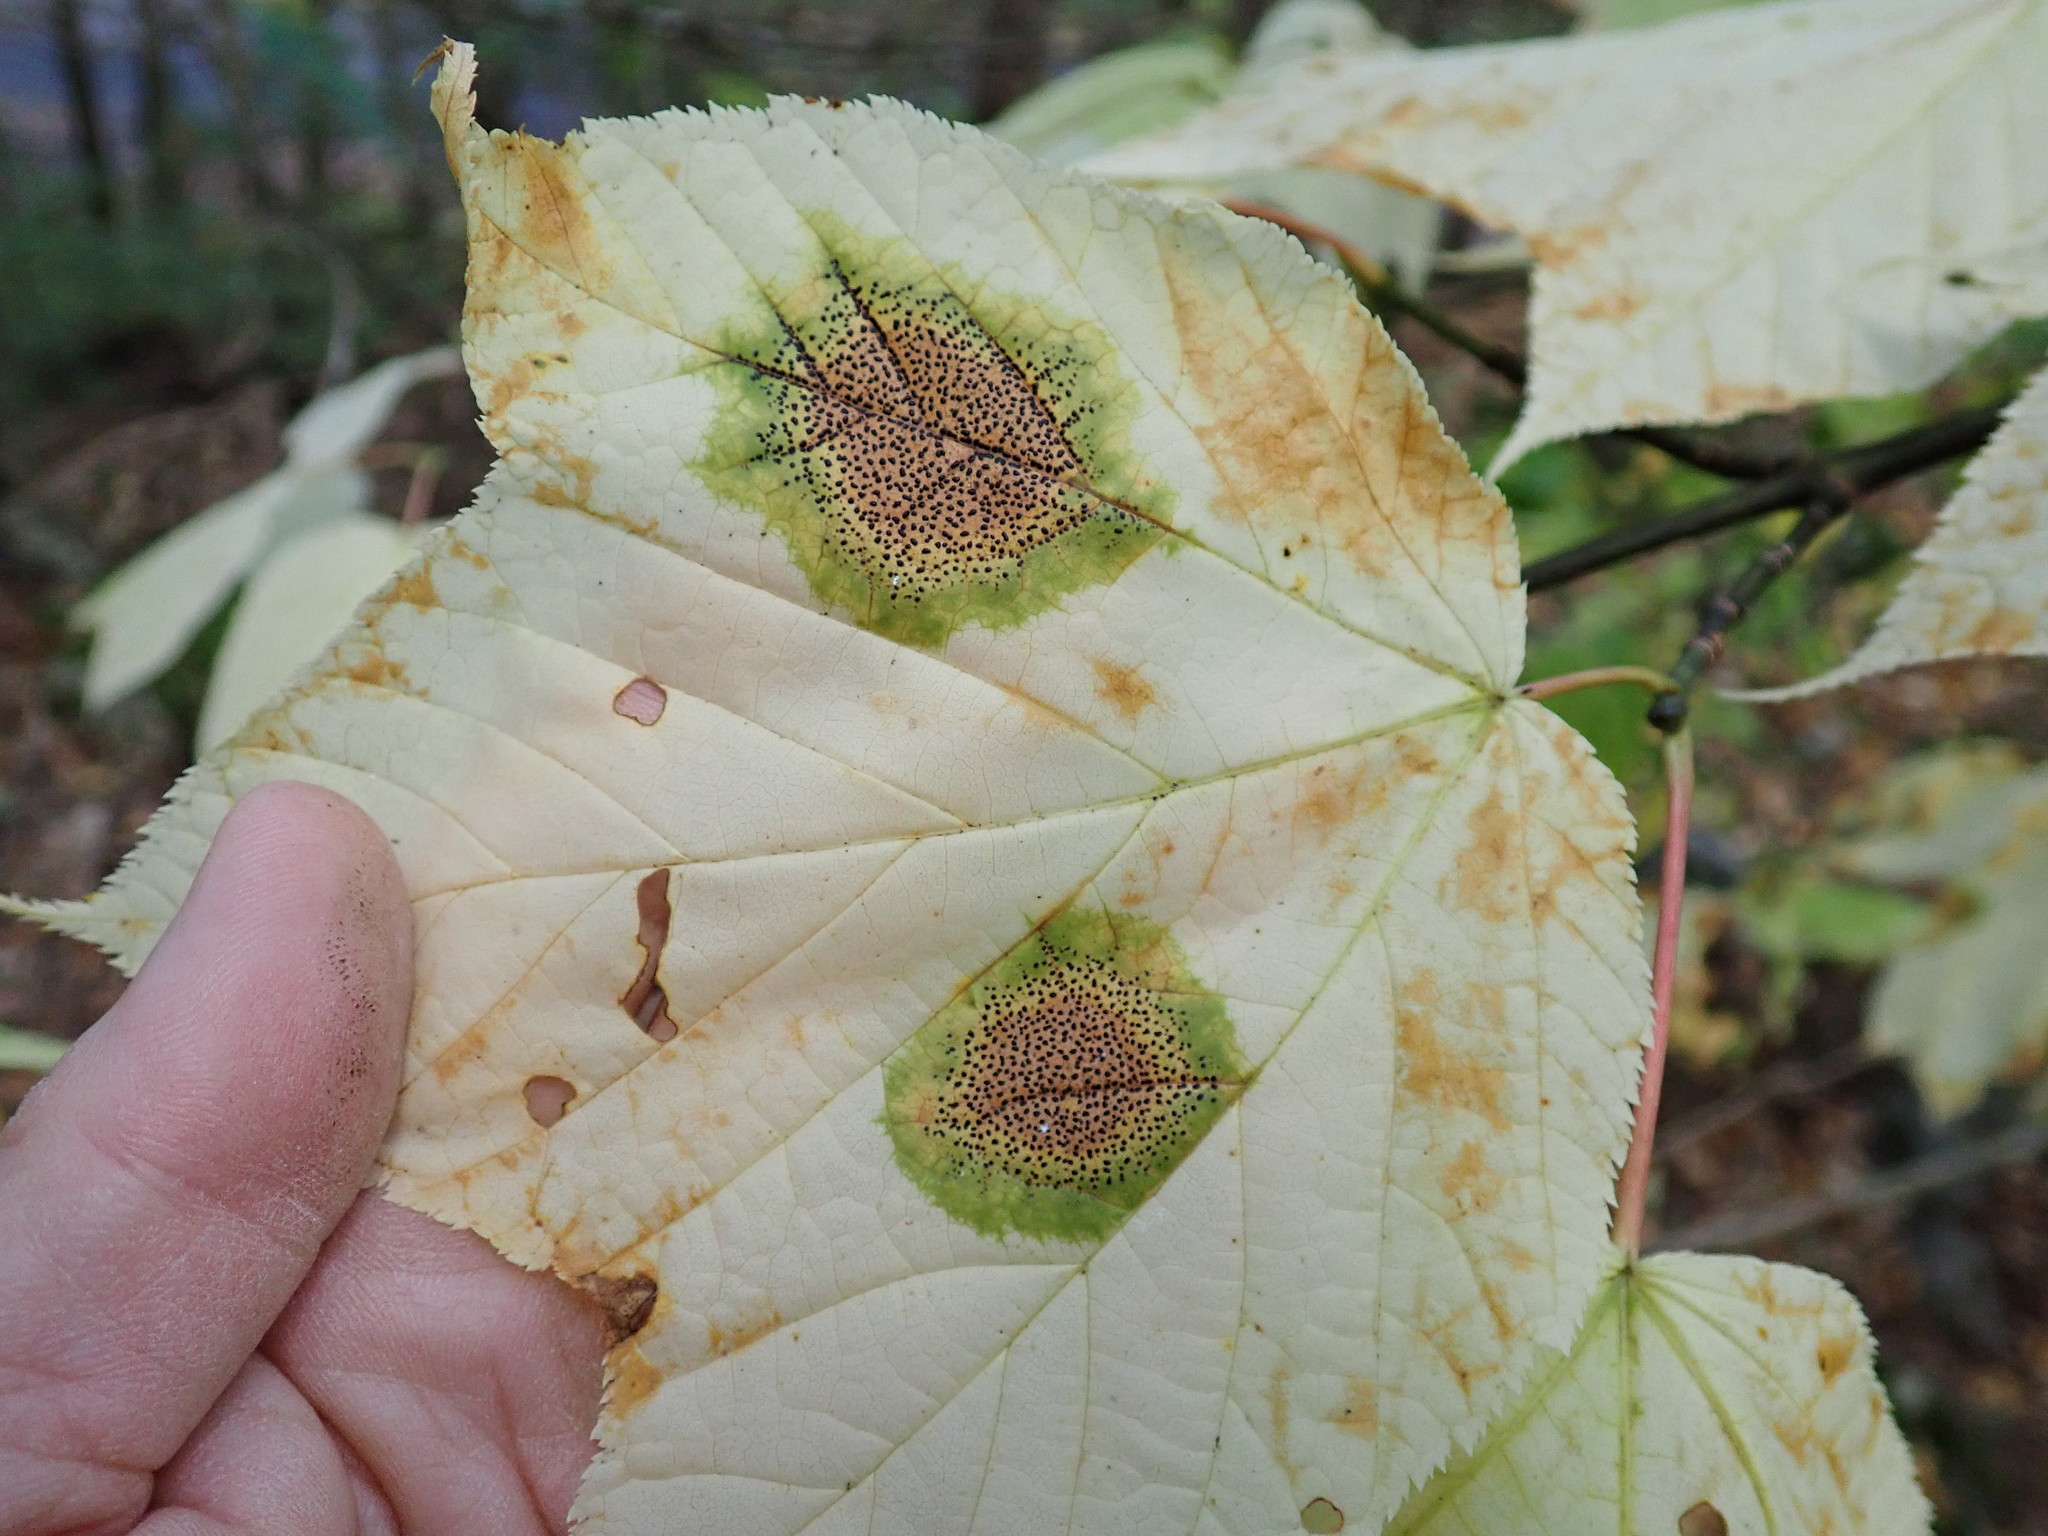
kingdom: Fungi
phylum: Ascomycota
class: Leotiomycetes
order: Rhytismatales
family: Rhytismataceae
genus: Rhytisma
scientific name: Rhytisma punctatum
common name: Speckled tar spot
